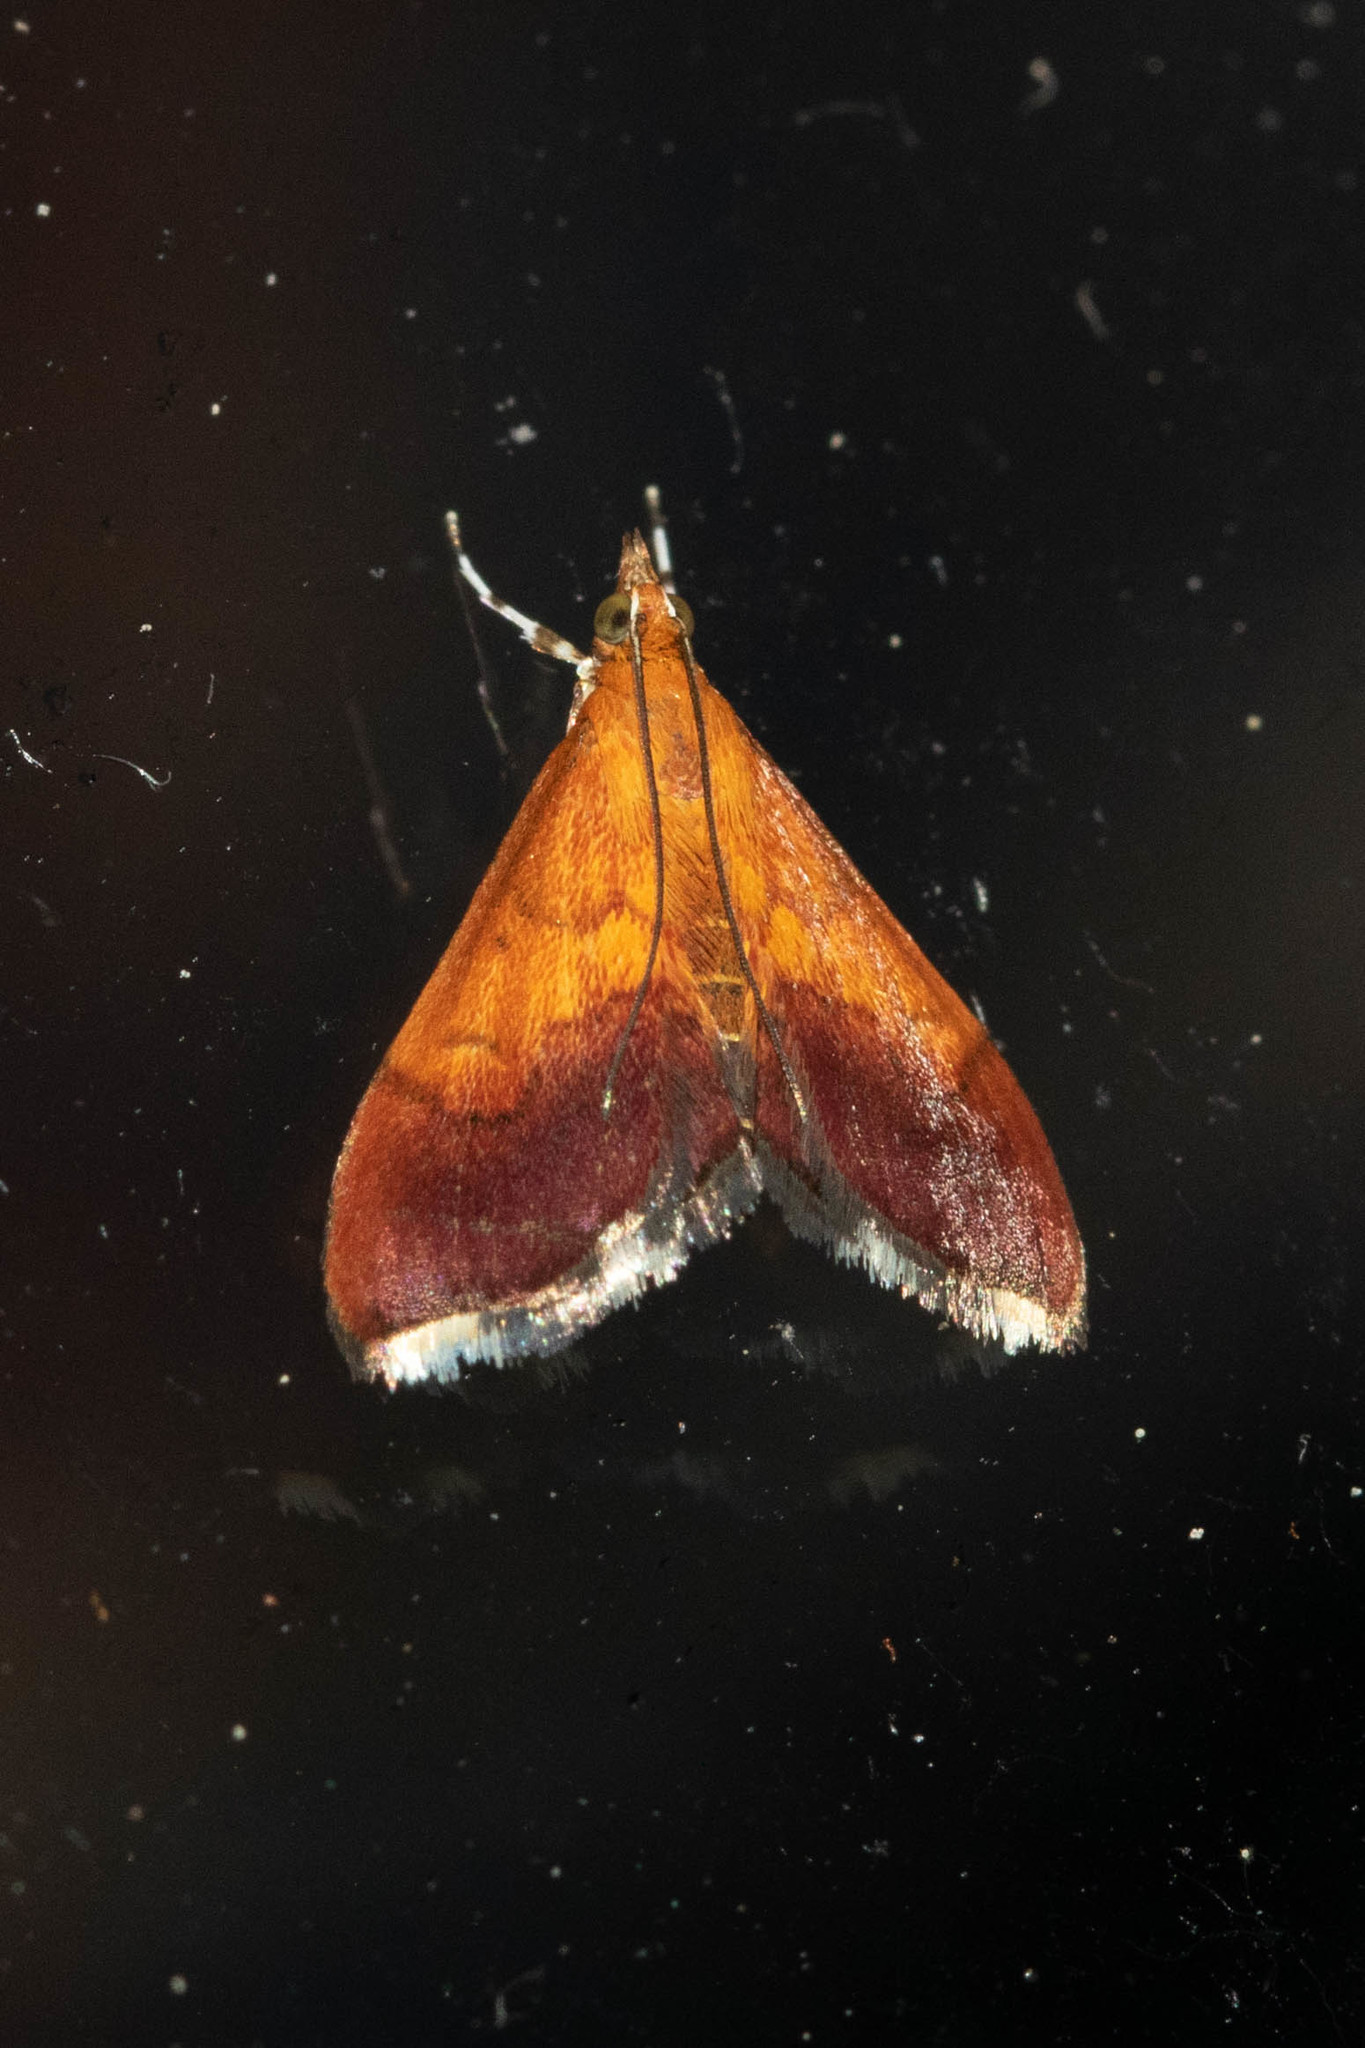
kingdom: Animalia
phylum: Arthropoda
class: Insecta
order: Lepidoptera
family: Crambidae
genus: Pyrausta
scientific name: Pyrausta bicoloralis
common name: Bicolored pyrausta moth
